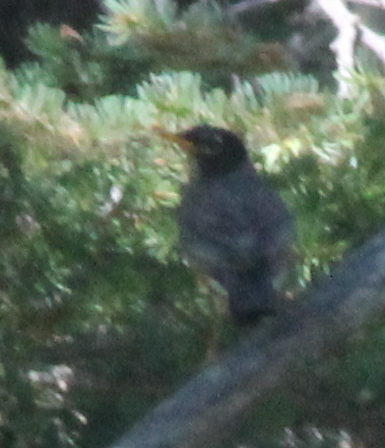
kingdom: Animalia
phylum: Chordata
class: Aves
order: Passeriformes
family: Turdidae
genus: Turdus
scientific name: Turdus migratorius
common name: American robin
